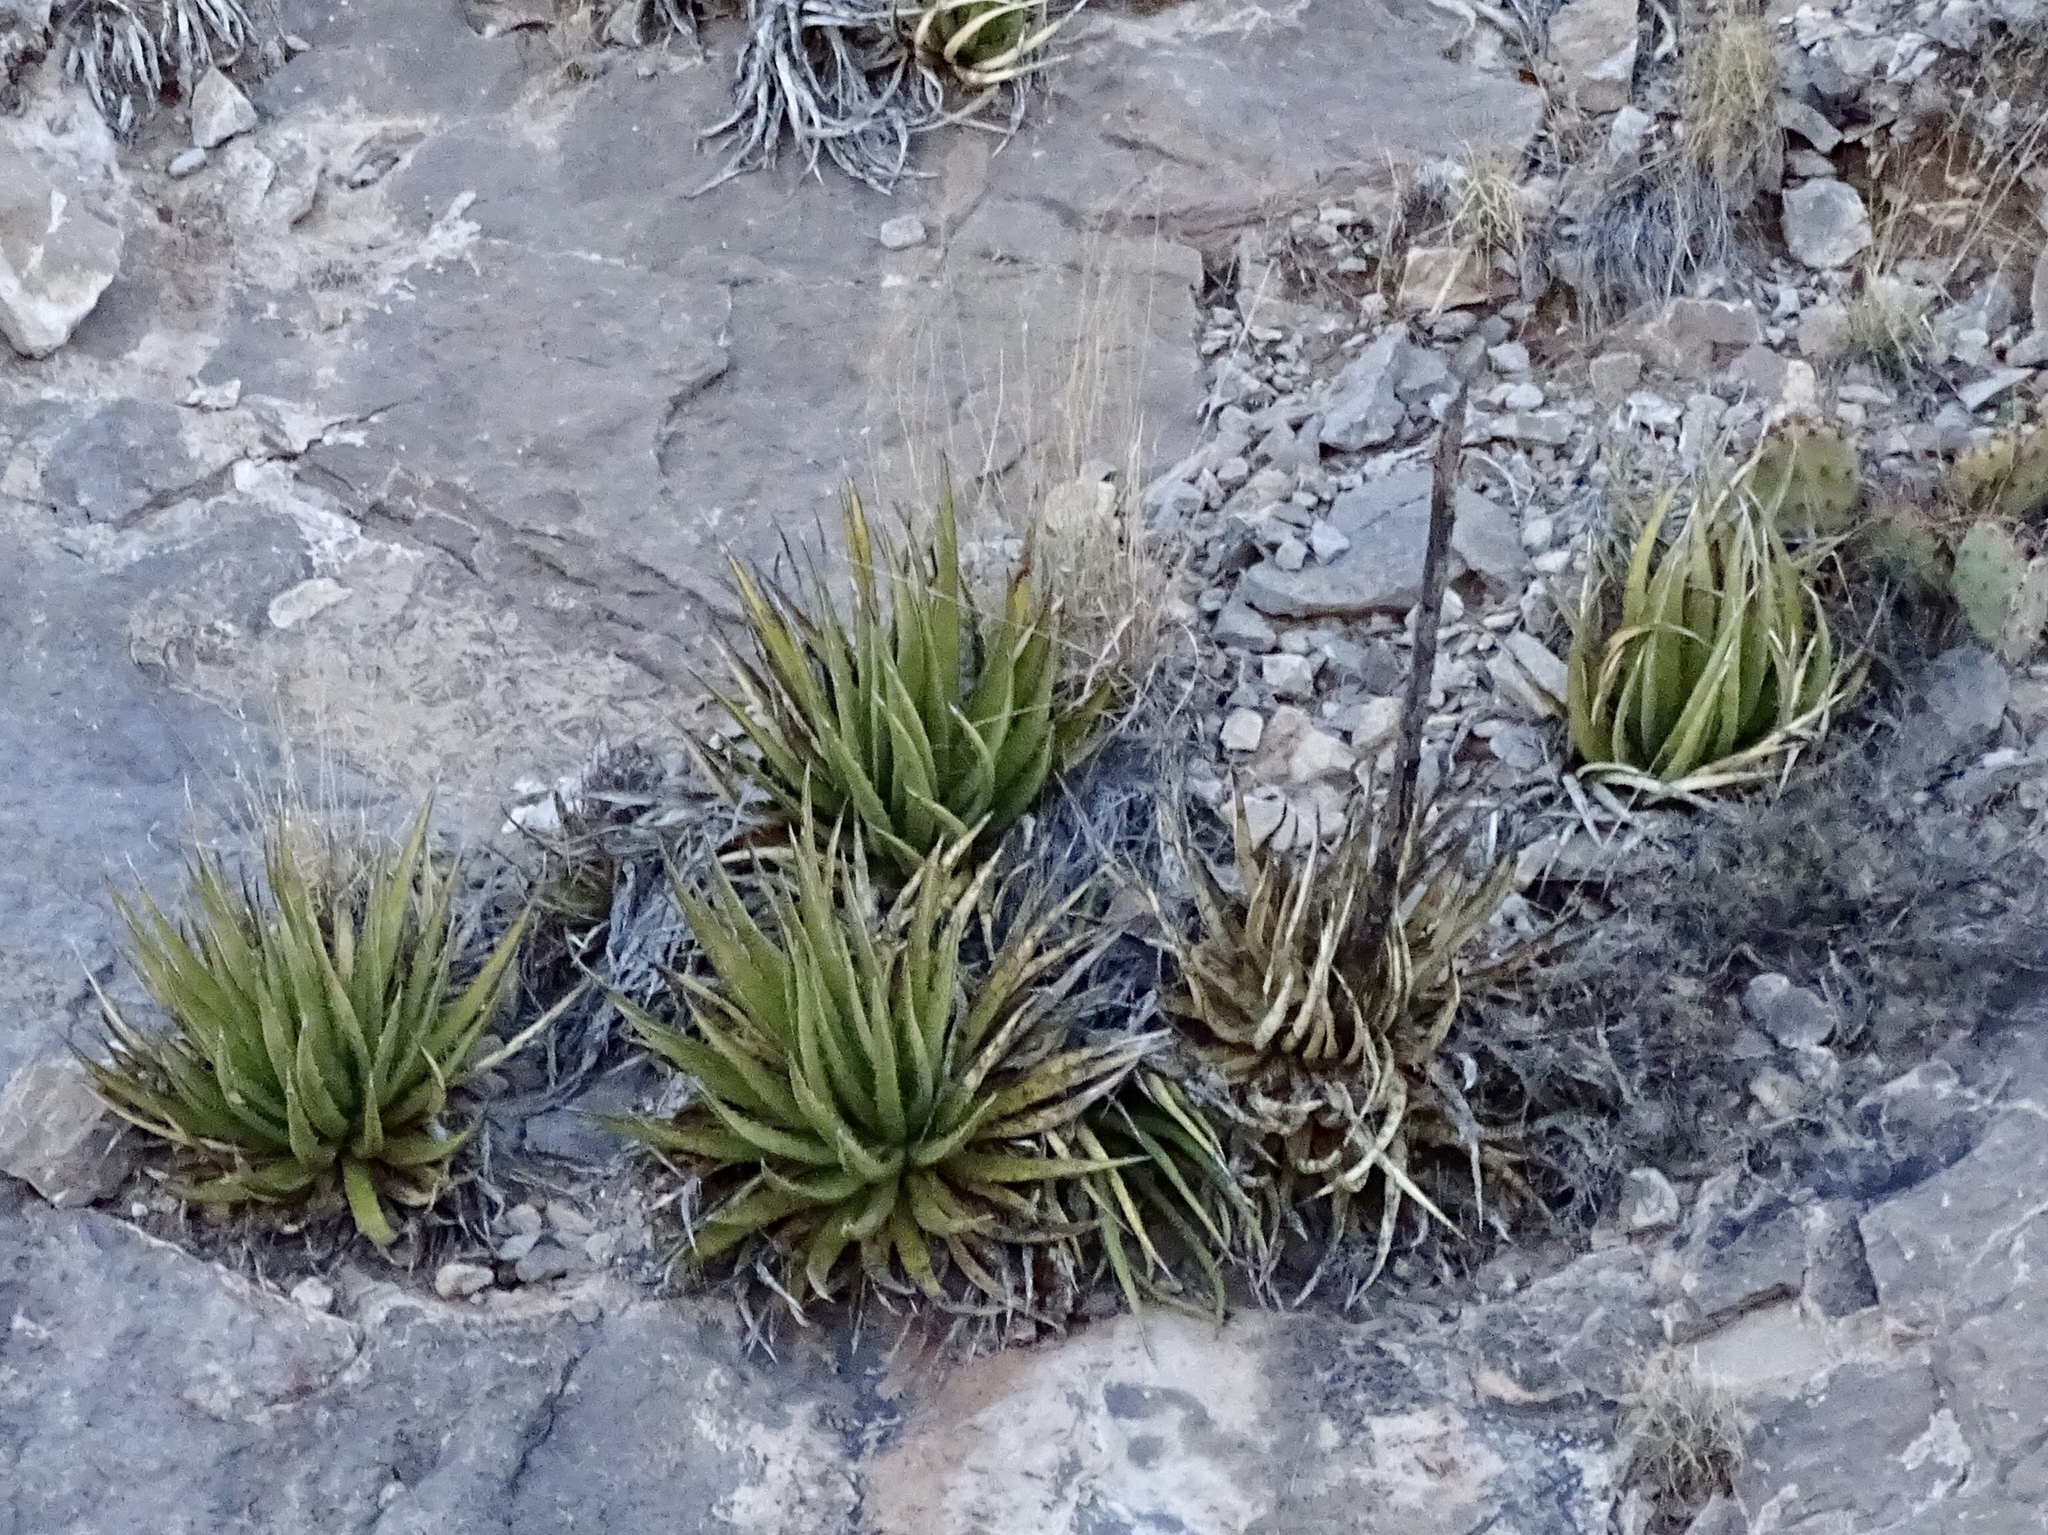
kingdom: Plantae
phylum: Tracheophyta
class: Liliopsida
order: Asparagales
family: Asparagaceae
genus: Agave
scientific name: Agave lechuguilla
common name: Lecheguilla agave
